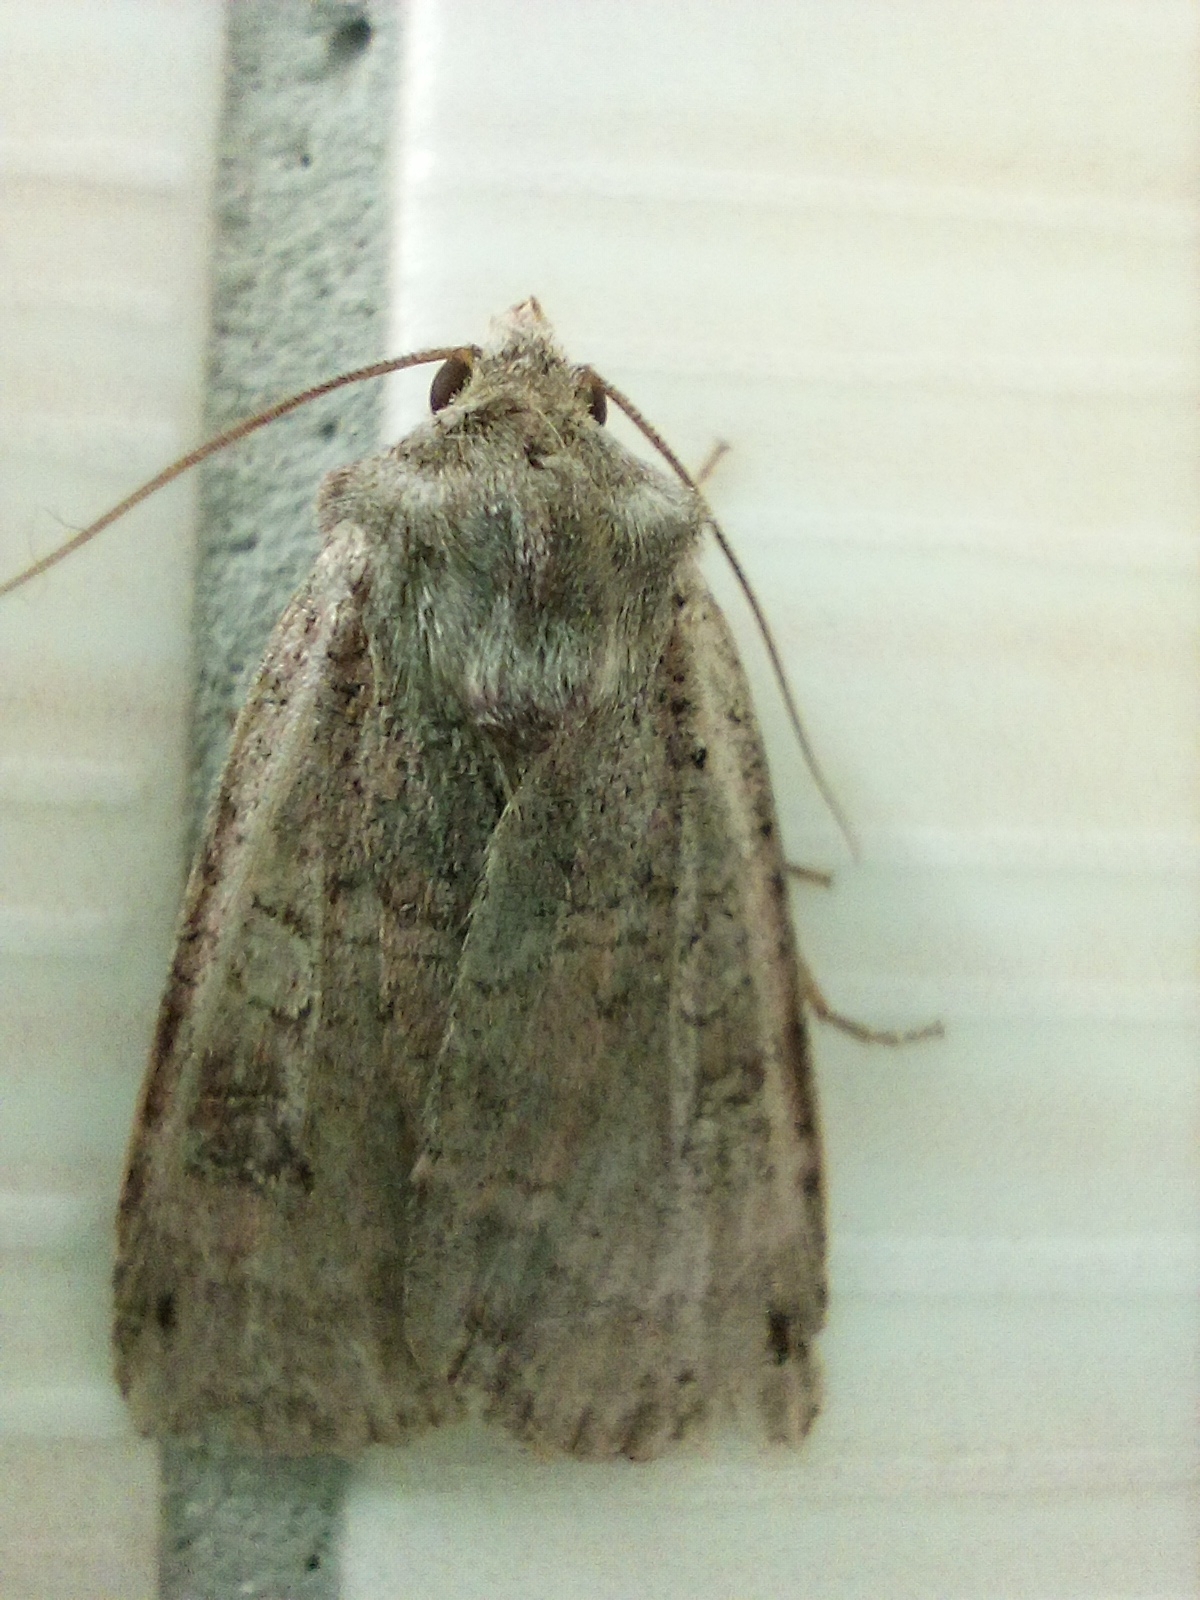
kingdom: Animalia
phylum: Arthropoda
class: Insecta
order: Lepidoptera
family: Noctuidae
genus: Xestia
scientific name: Xestia baja
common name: Dotted clay
